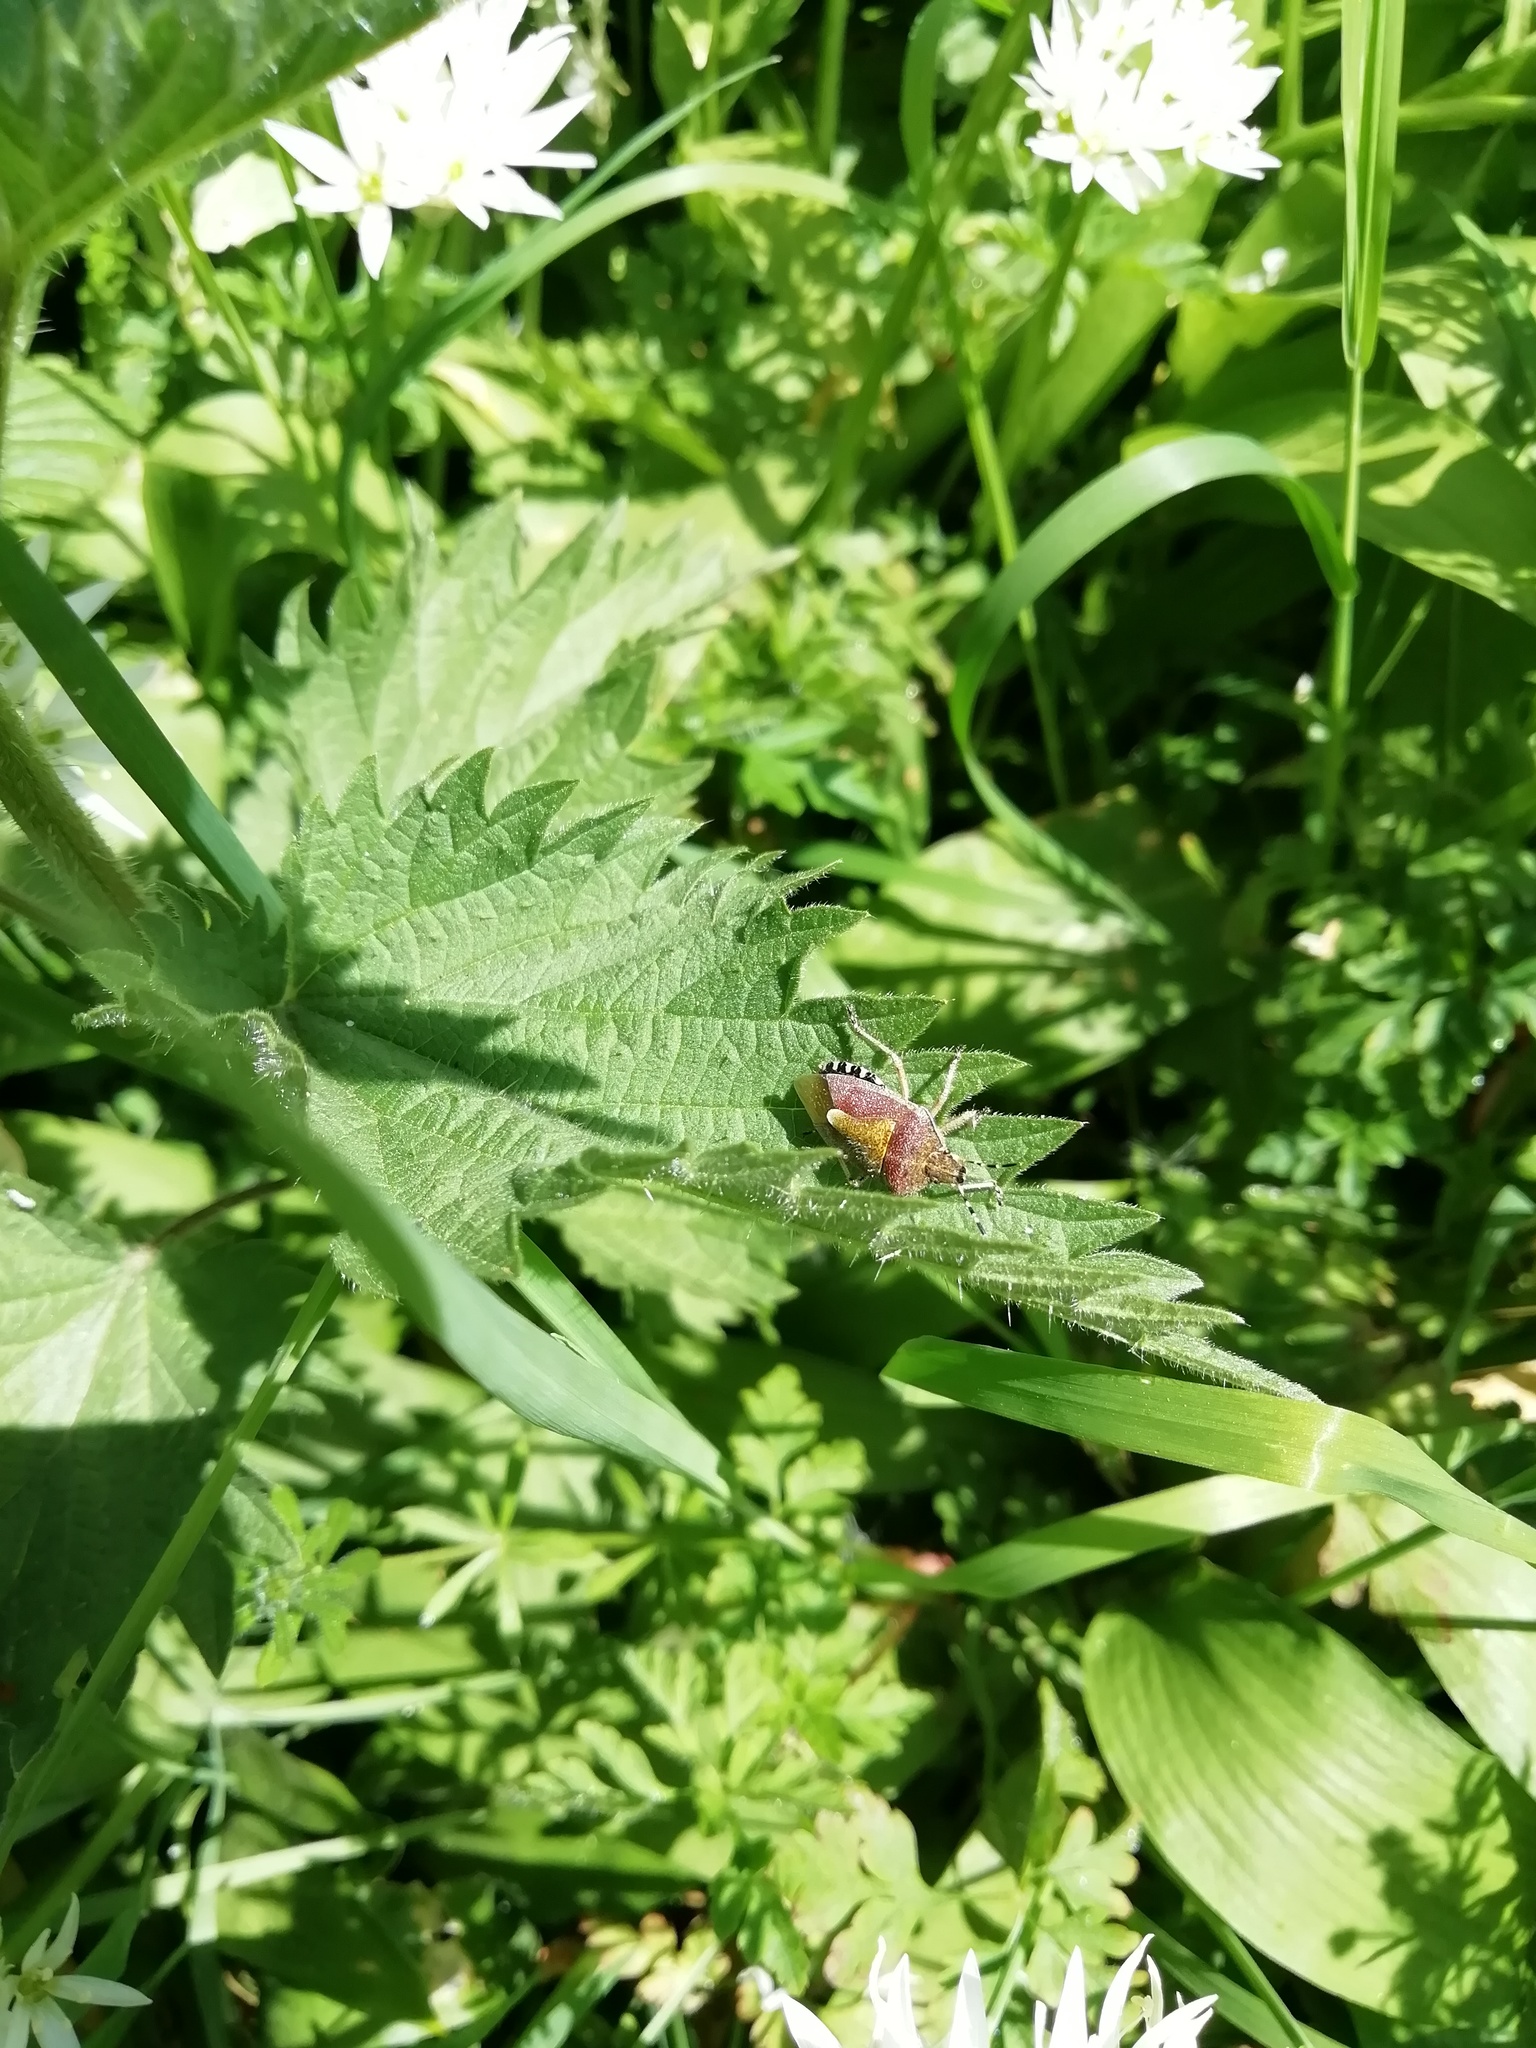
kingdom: Animalia
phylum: Arthropoda
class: Insecta
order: Hemiptera
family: Pentatomidae
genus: Dolycoris
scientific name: Dolycoris baccarum
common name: Sloe bug
